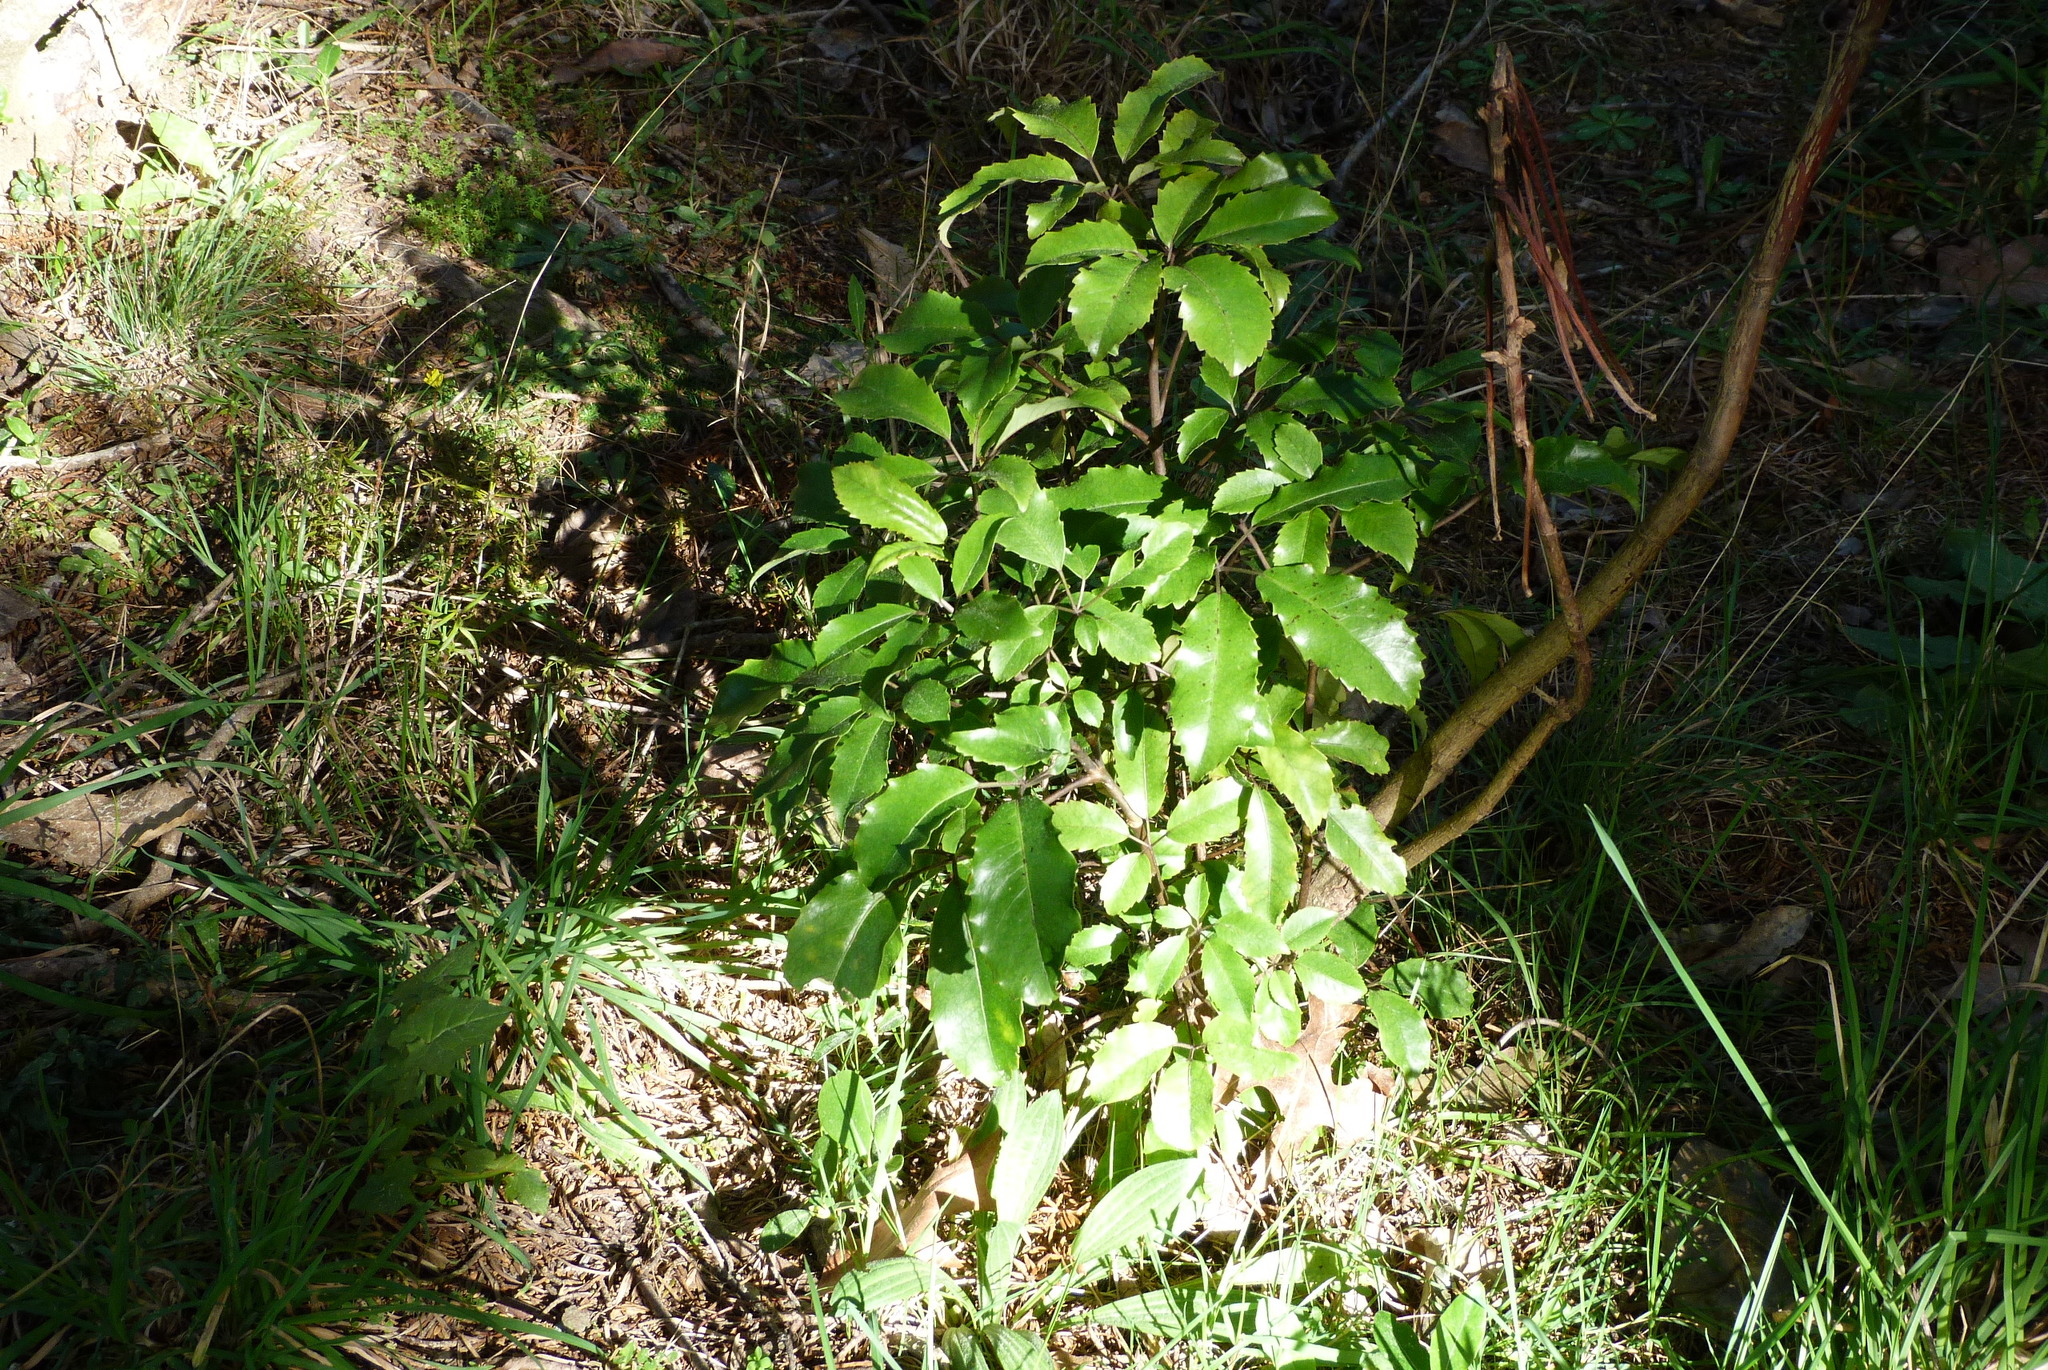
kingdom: Plantae
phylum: Tracheophyta
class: Magnoliopsida
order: Apiales
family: Araliaceae
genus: Neopanax
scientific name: Neopanax arboreus
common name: Five-fingers
